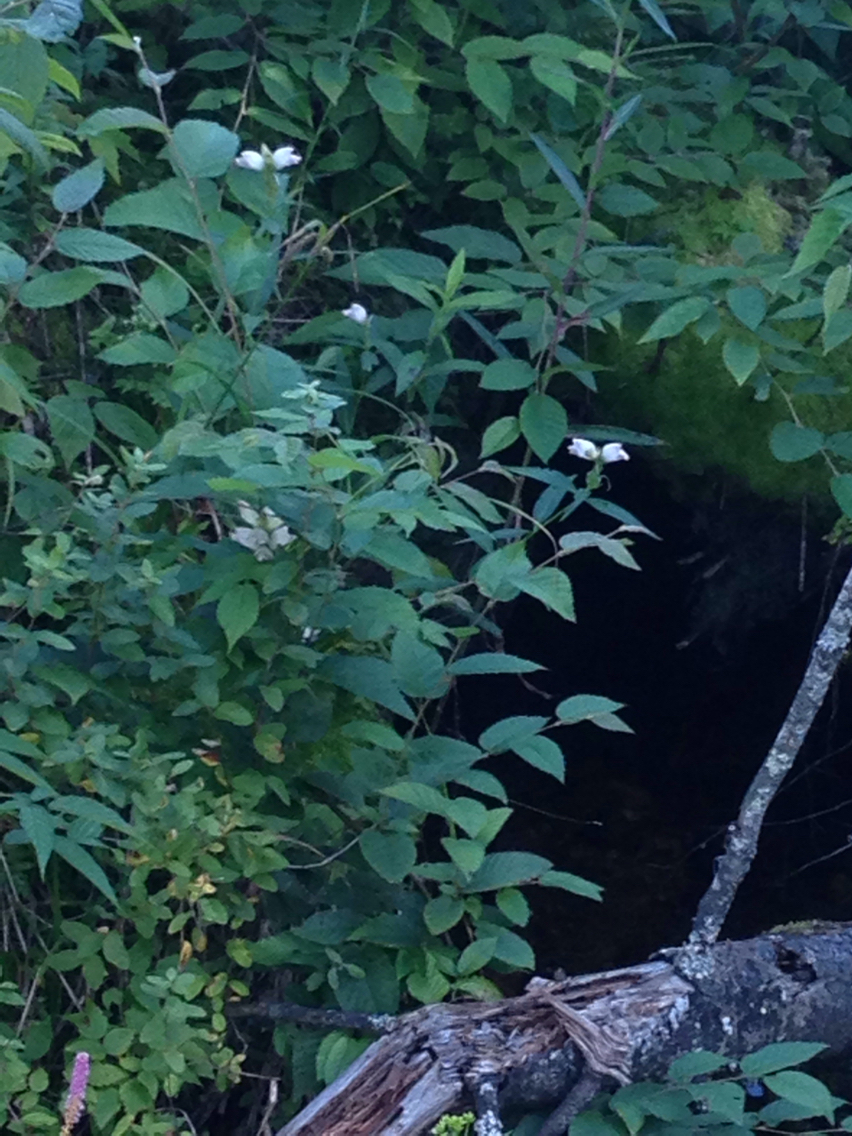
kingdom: Plantae
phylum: Tracheophyta
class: Magnoliopsida
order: Lamiales
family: Plantaginaceae
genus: Chelone
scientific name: Chelone glabra
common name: Snakehead
